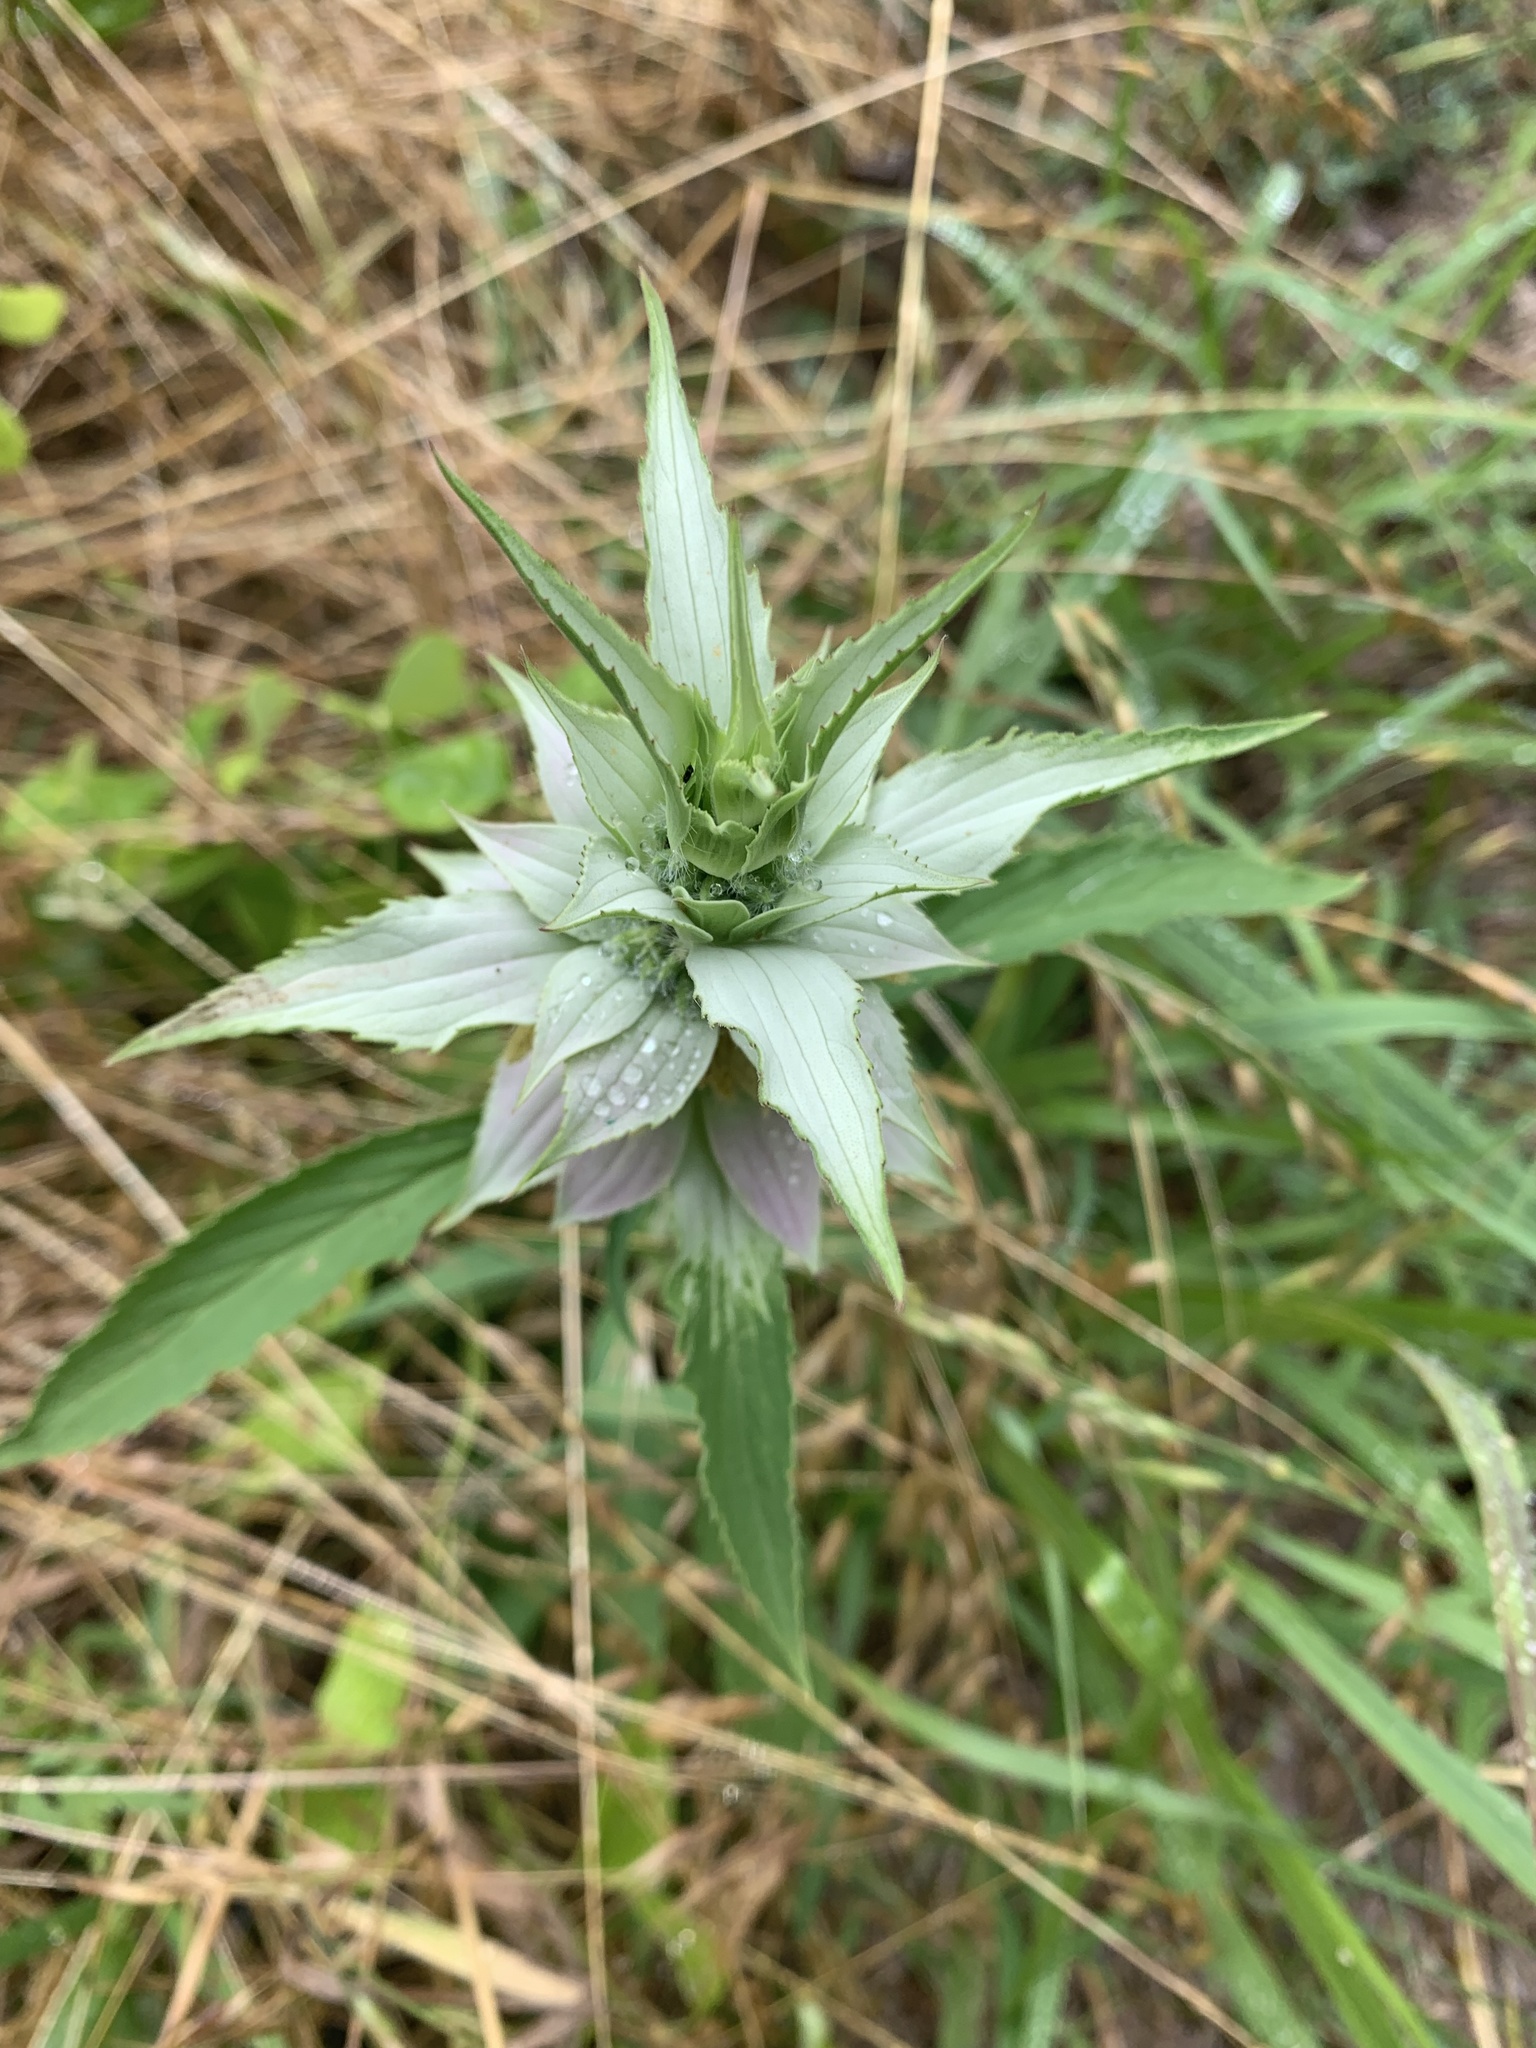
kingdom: Plantae
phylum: Tracheophyta
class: Magnoliopsida
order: Lamiales
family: Lamiaceae
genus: Monarda
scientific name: Monarda punctata
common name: Dotted monarda
